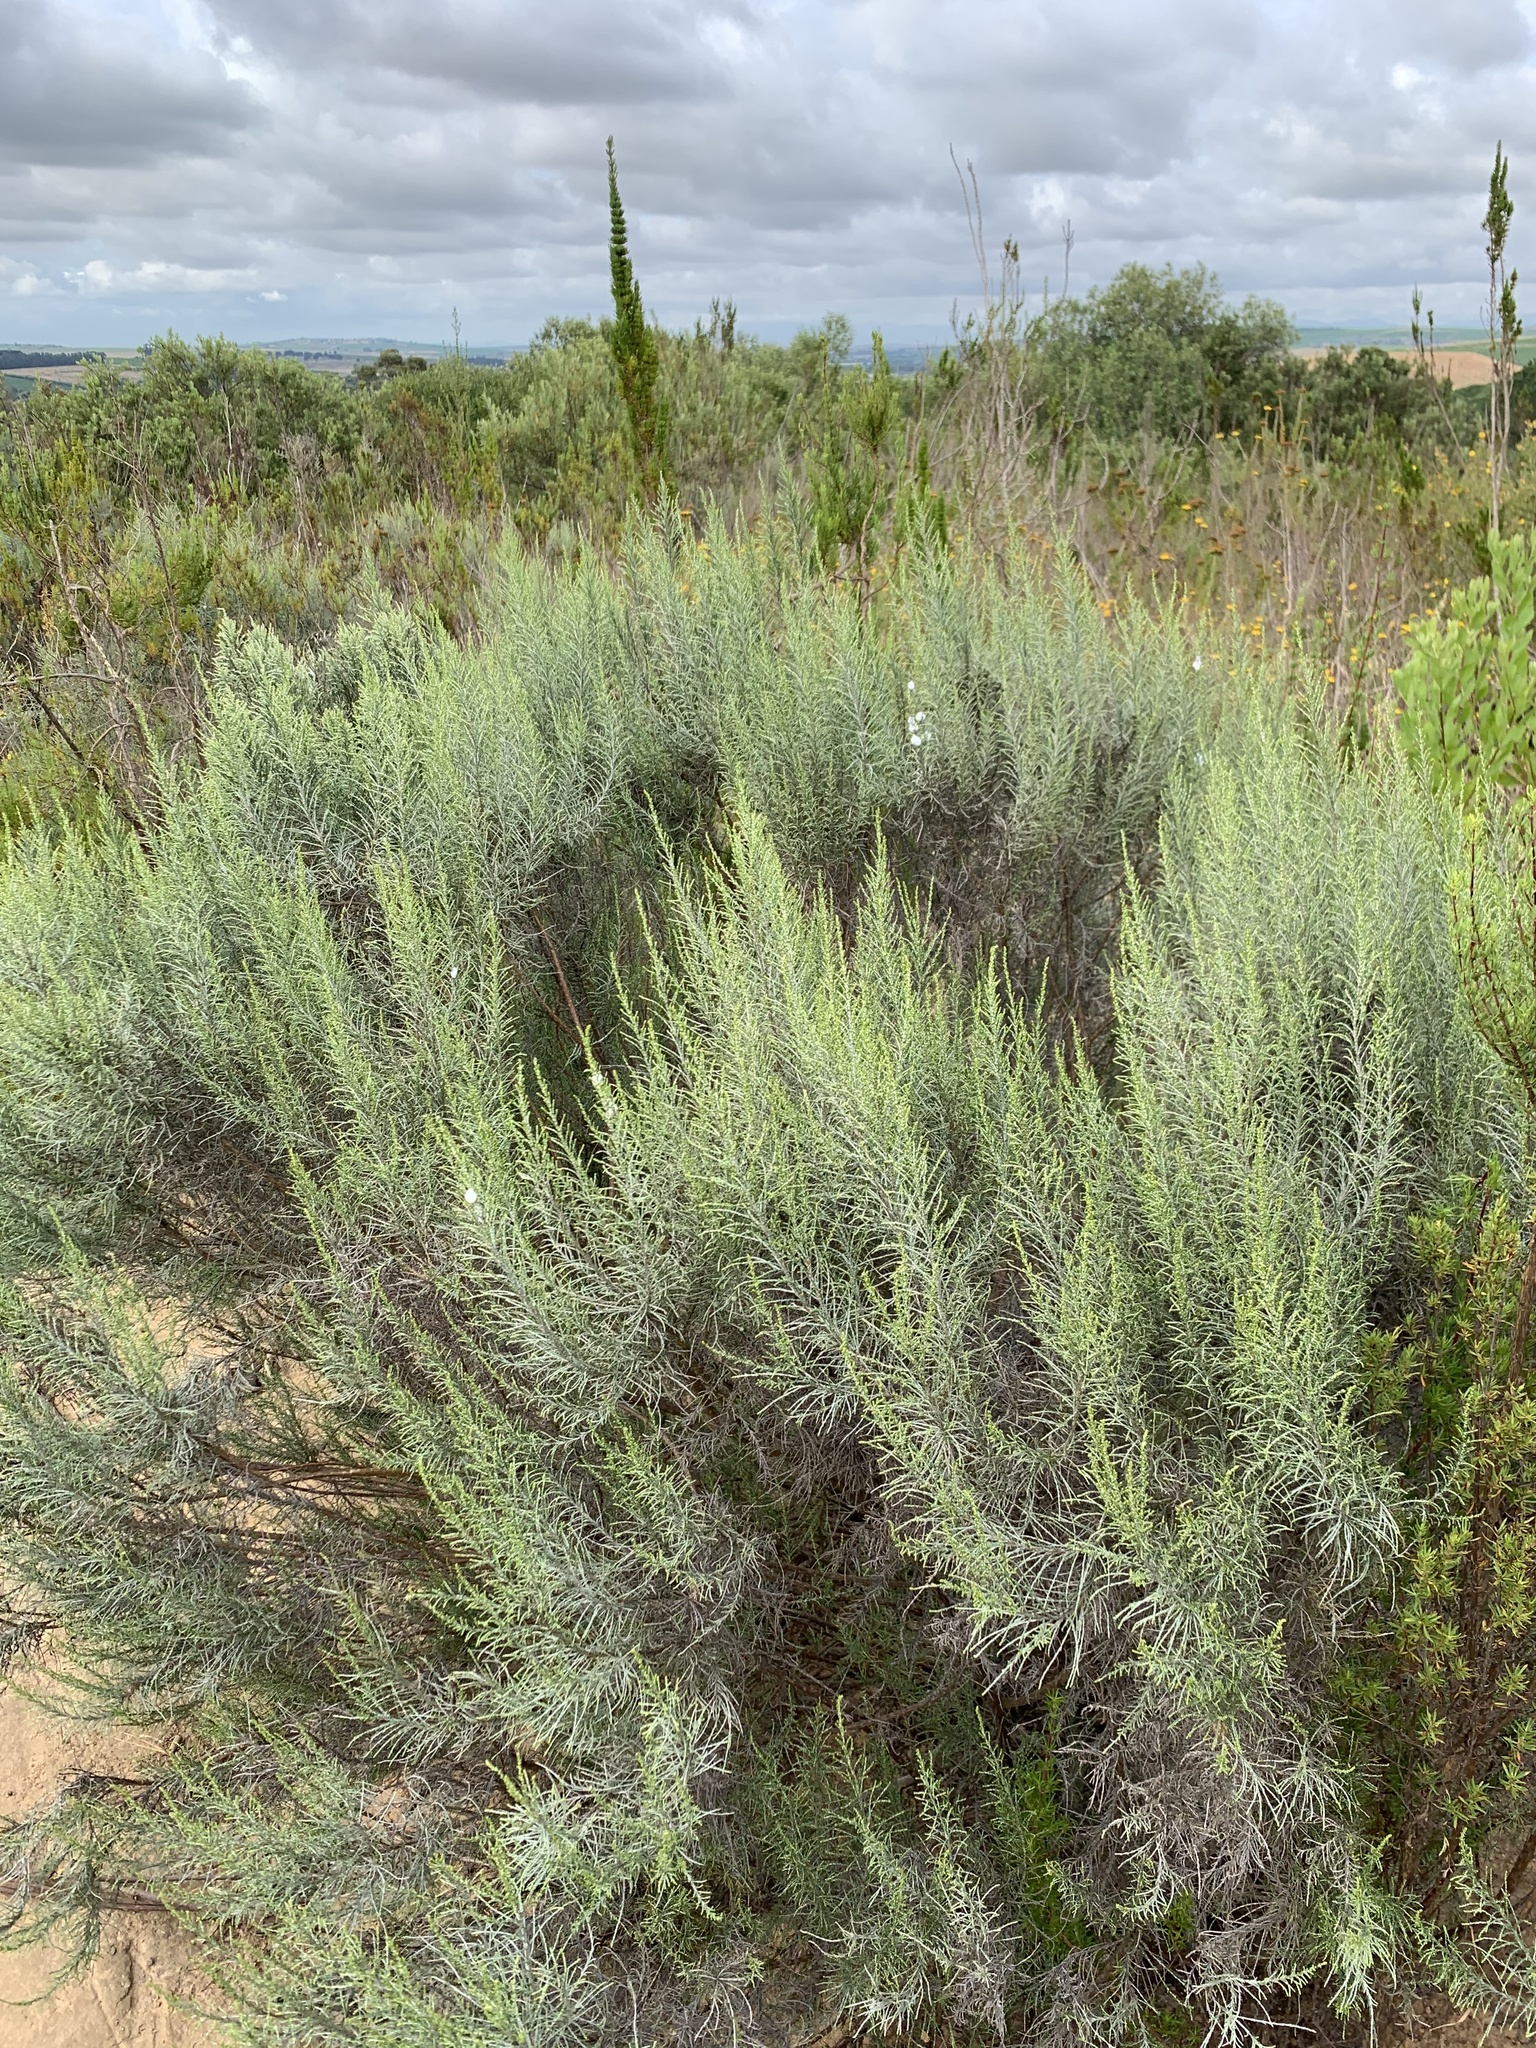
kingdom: Plantae
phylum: Tracheophyta
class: Magnoliopsida
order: Asterales
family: Asteraceae
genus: Dicerothamnus
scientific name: Dicerothamnus rhinocerotis
